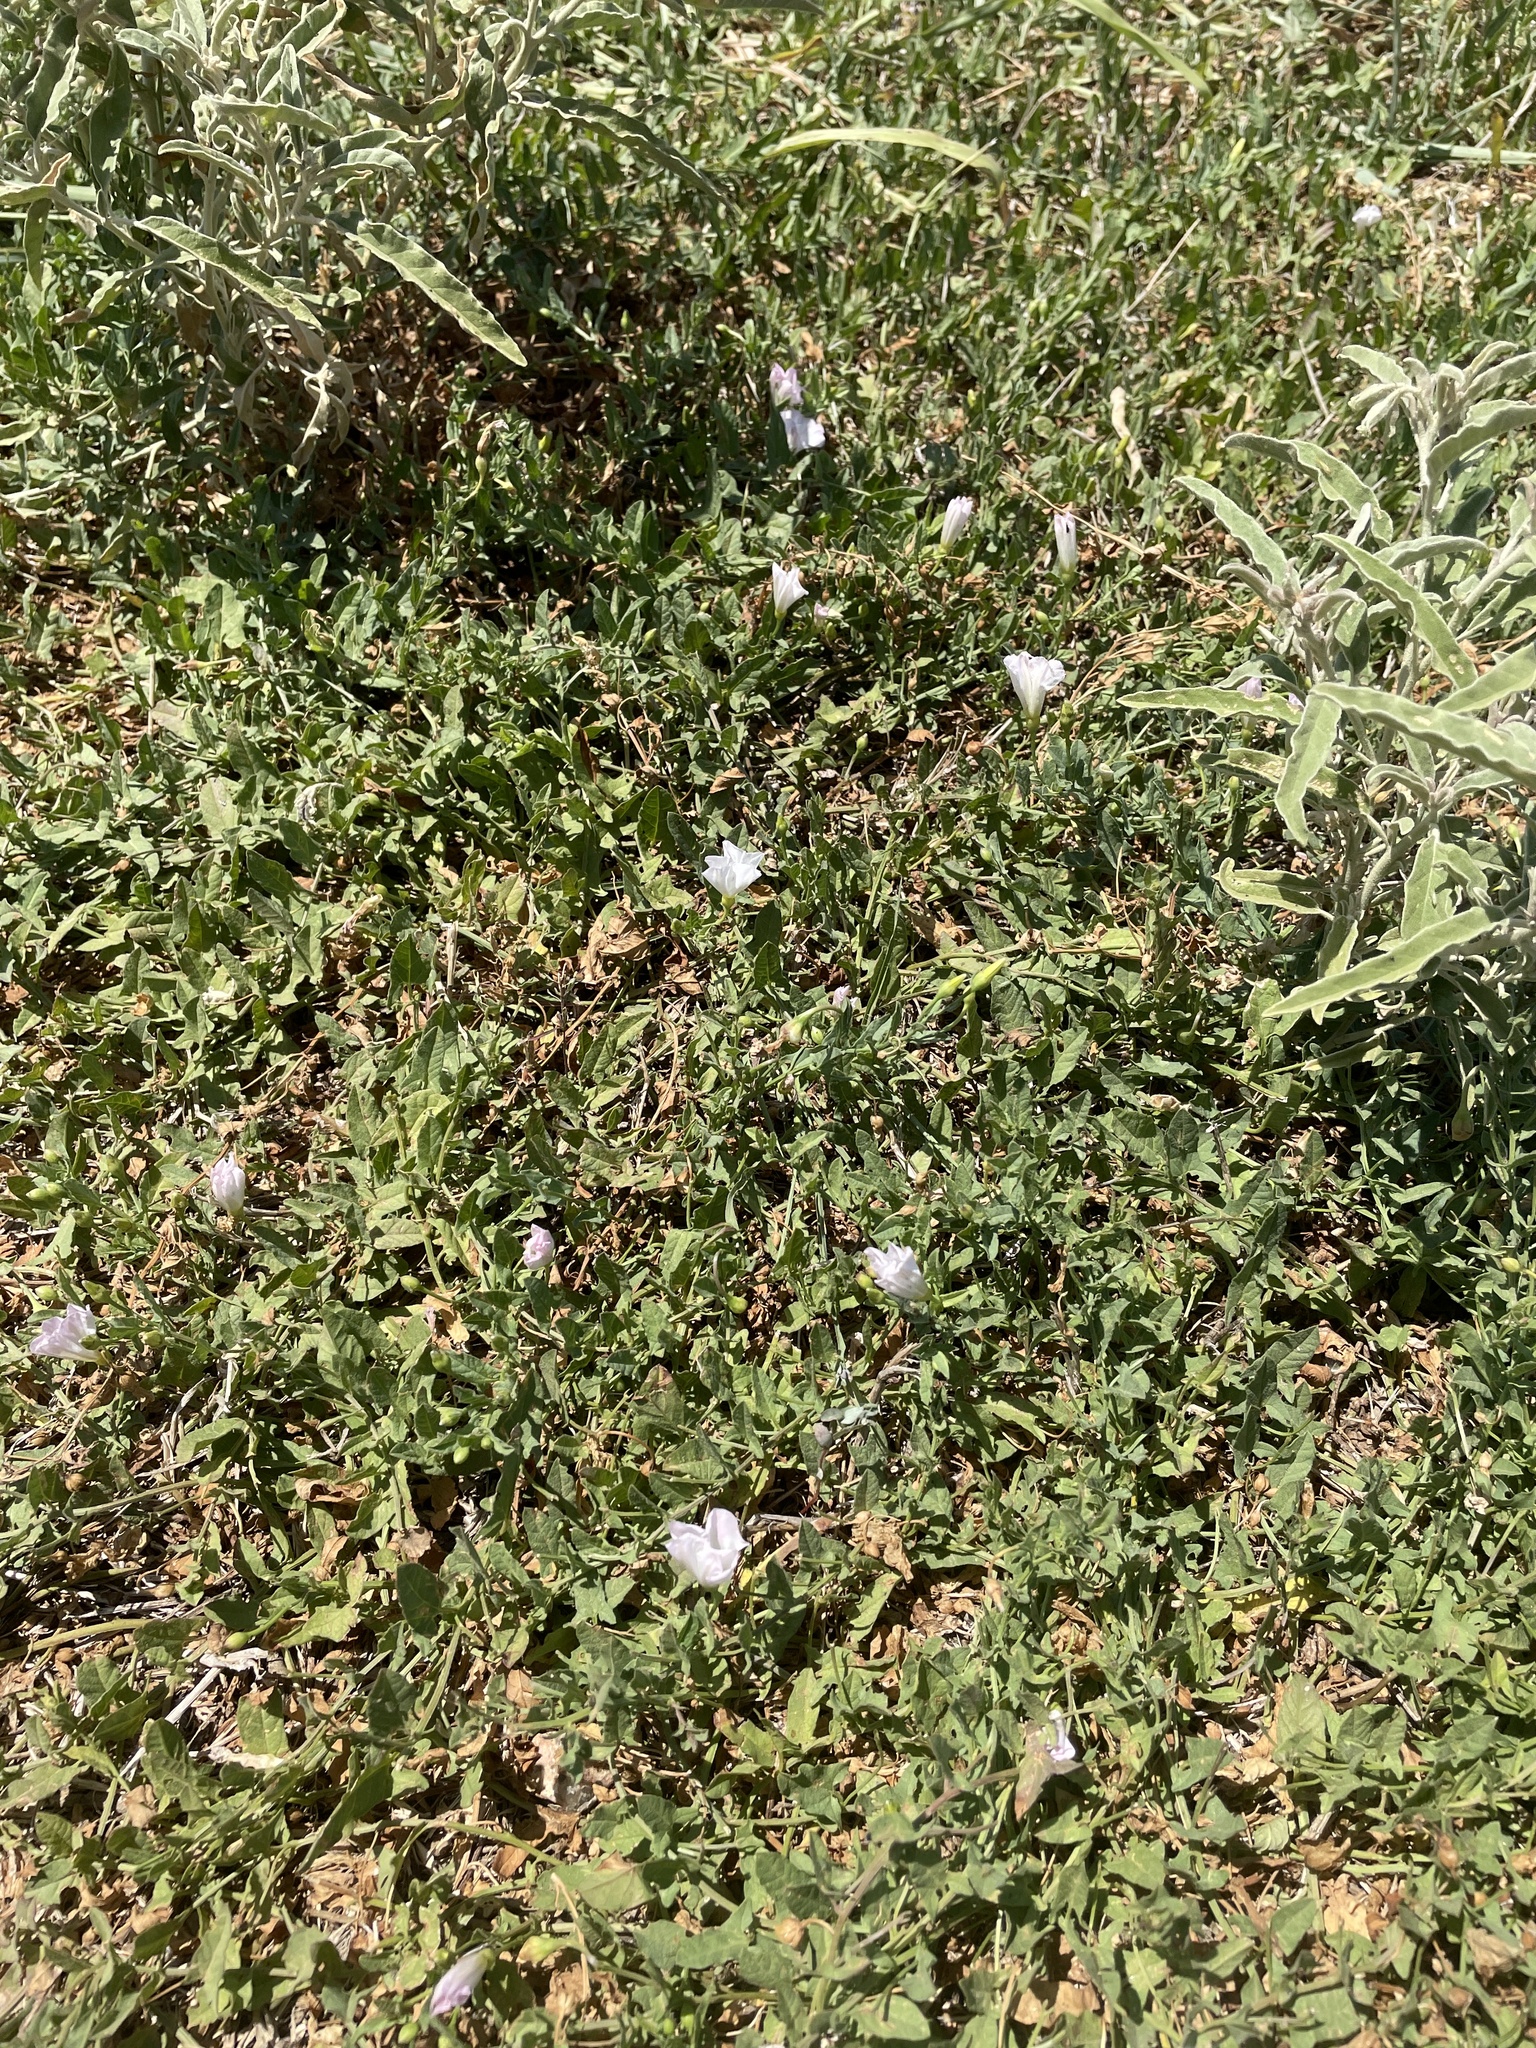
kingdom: Plantae
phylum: Tracheophyta
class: Magnoliopsida
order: Solanales
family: Convolvulaceae
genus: Convolvulus
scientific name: Convolvulus arvensis
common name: Field bindweed
